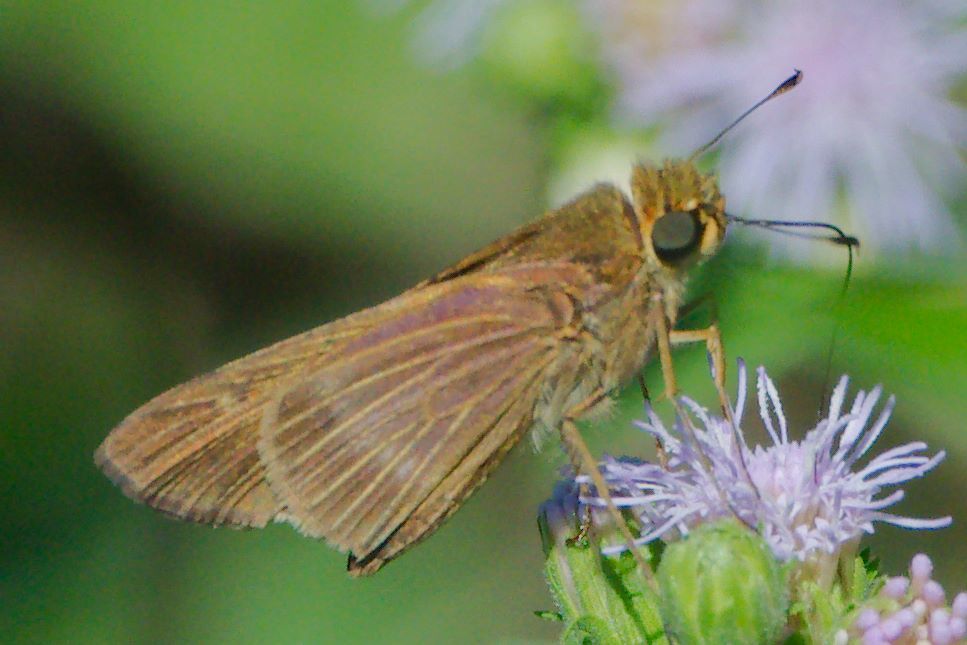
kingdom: Animalia
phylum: Arthropoda
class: Insecta
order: Lepidoptera
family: Hesperiidae
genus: Turesis
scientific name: Turesis lucas
